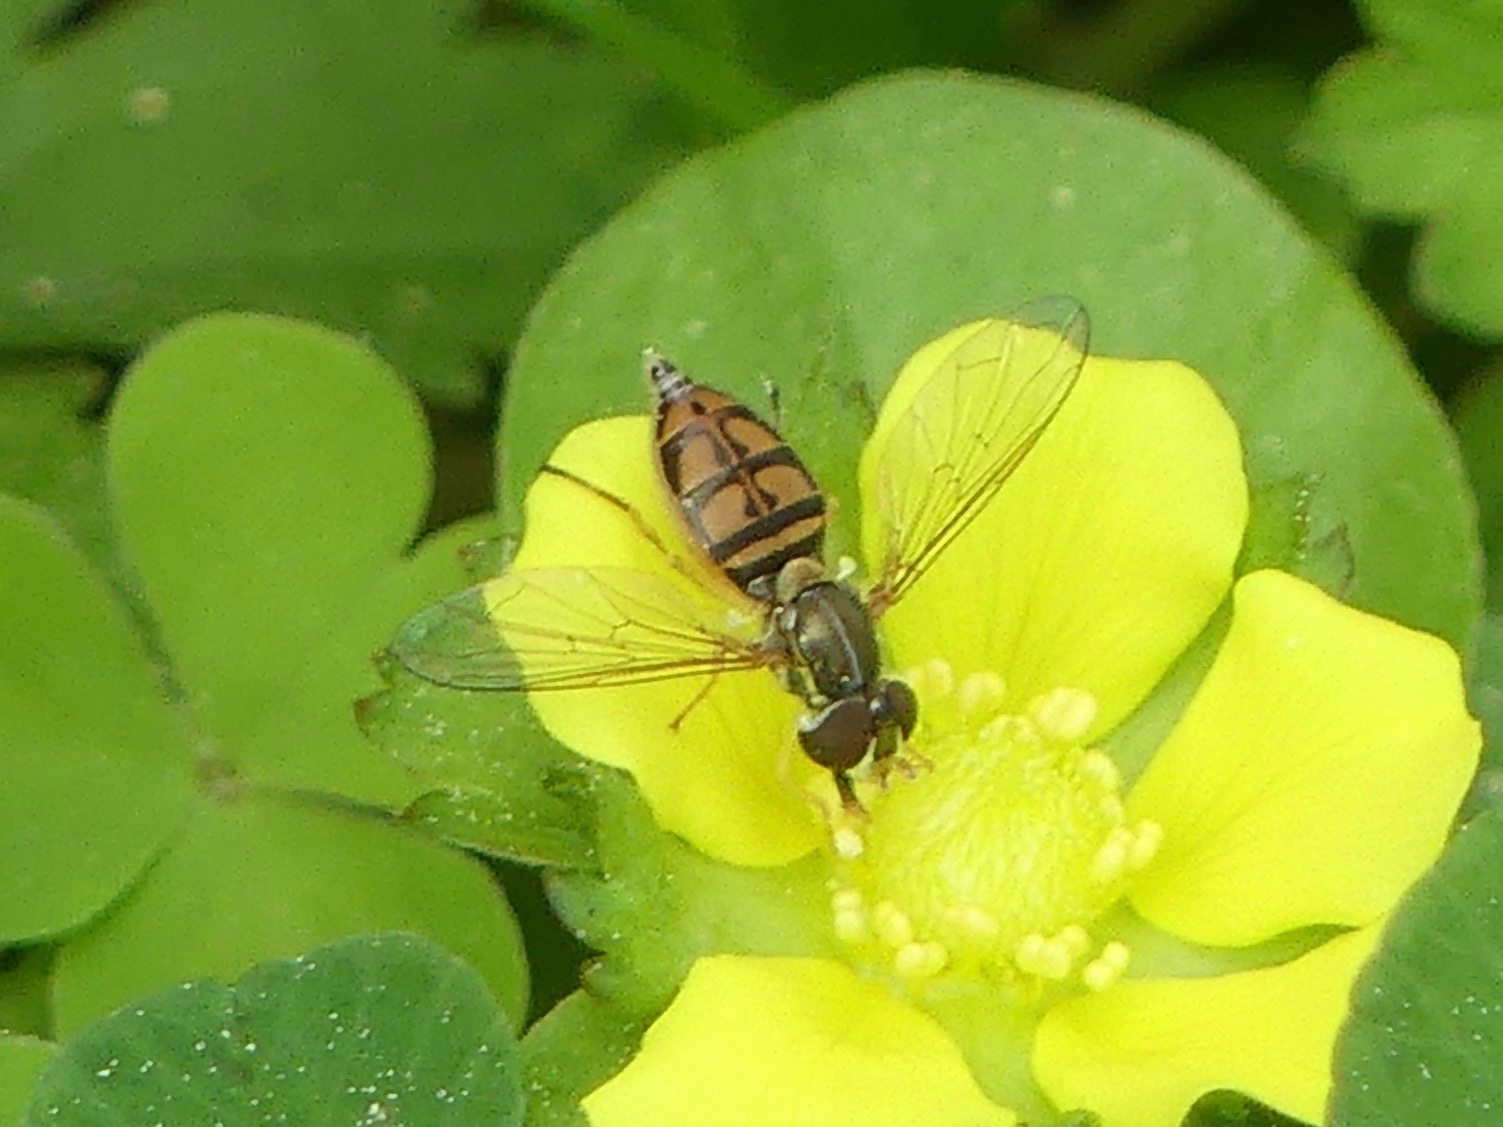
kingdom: Animalia
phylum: Arthropoda
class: Insecta
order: Diptera
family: Syrphidae
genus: Toxomerus
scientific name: Toxomerus marginatus
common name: Syrphid fly
